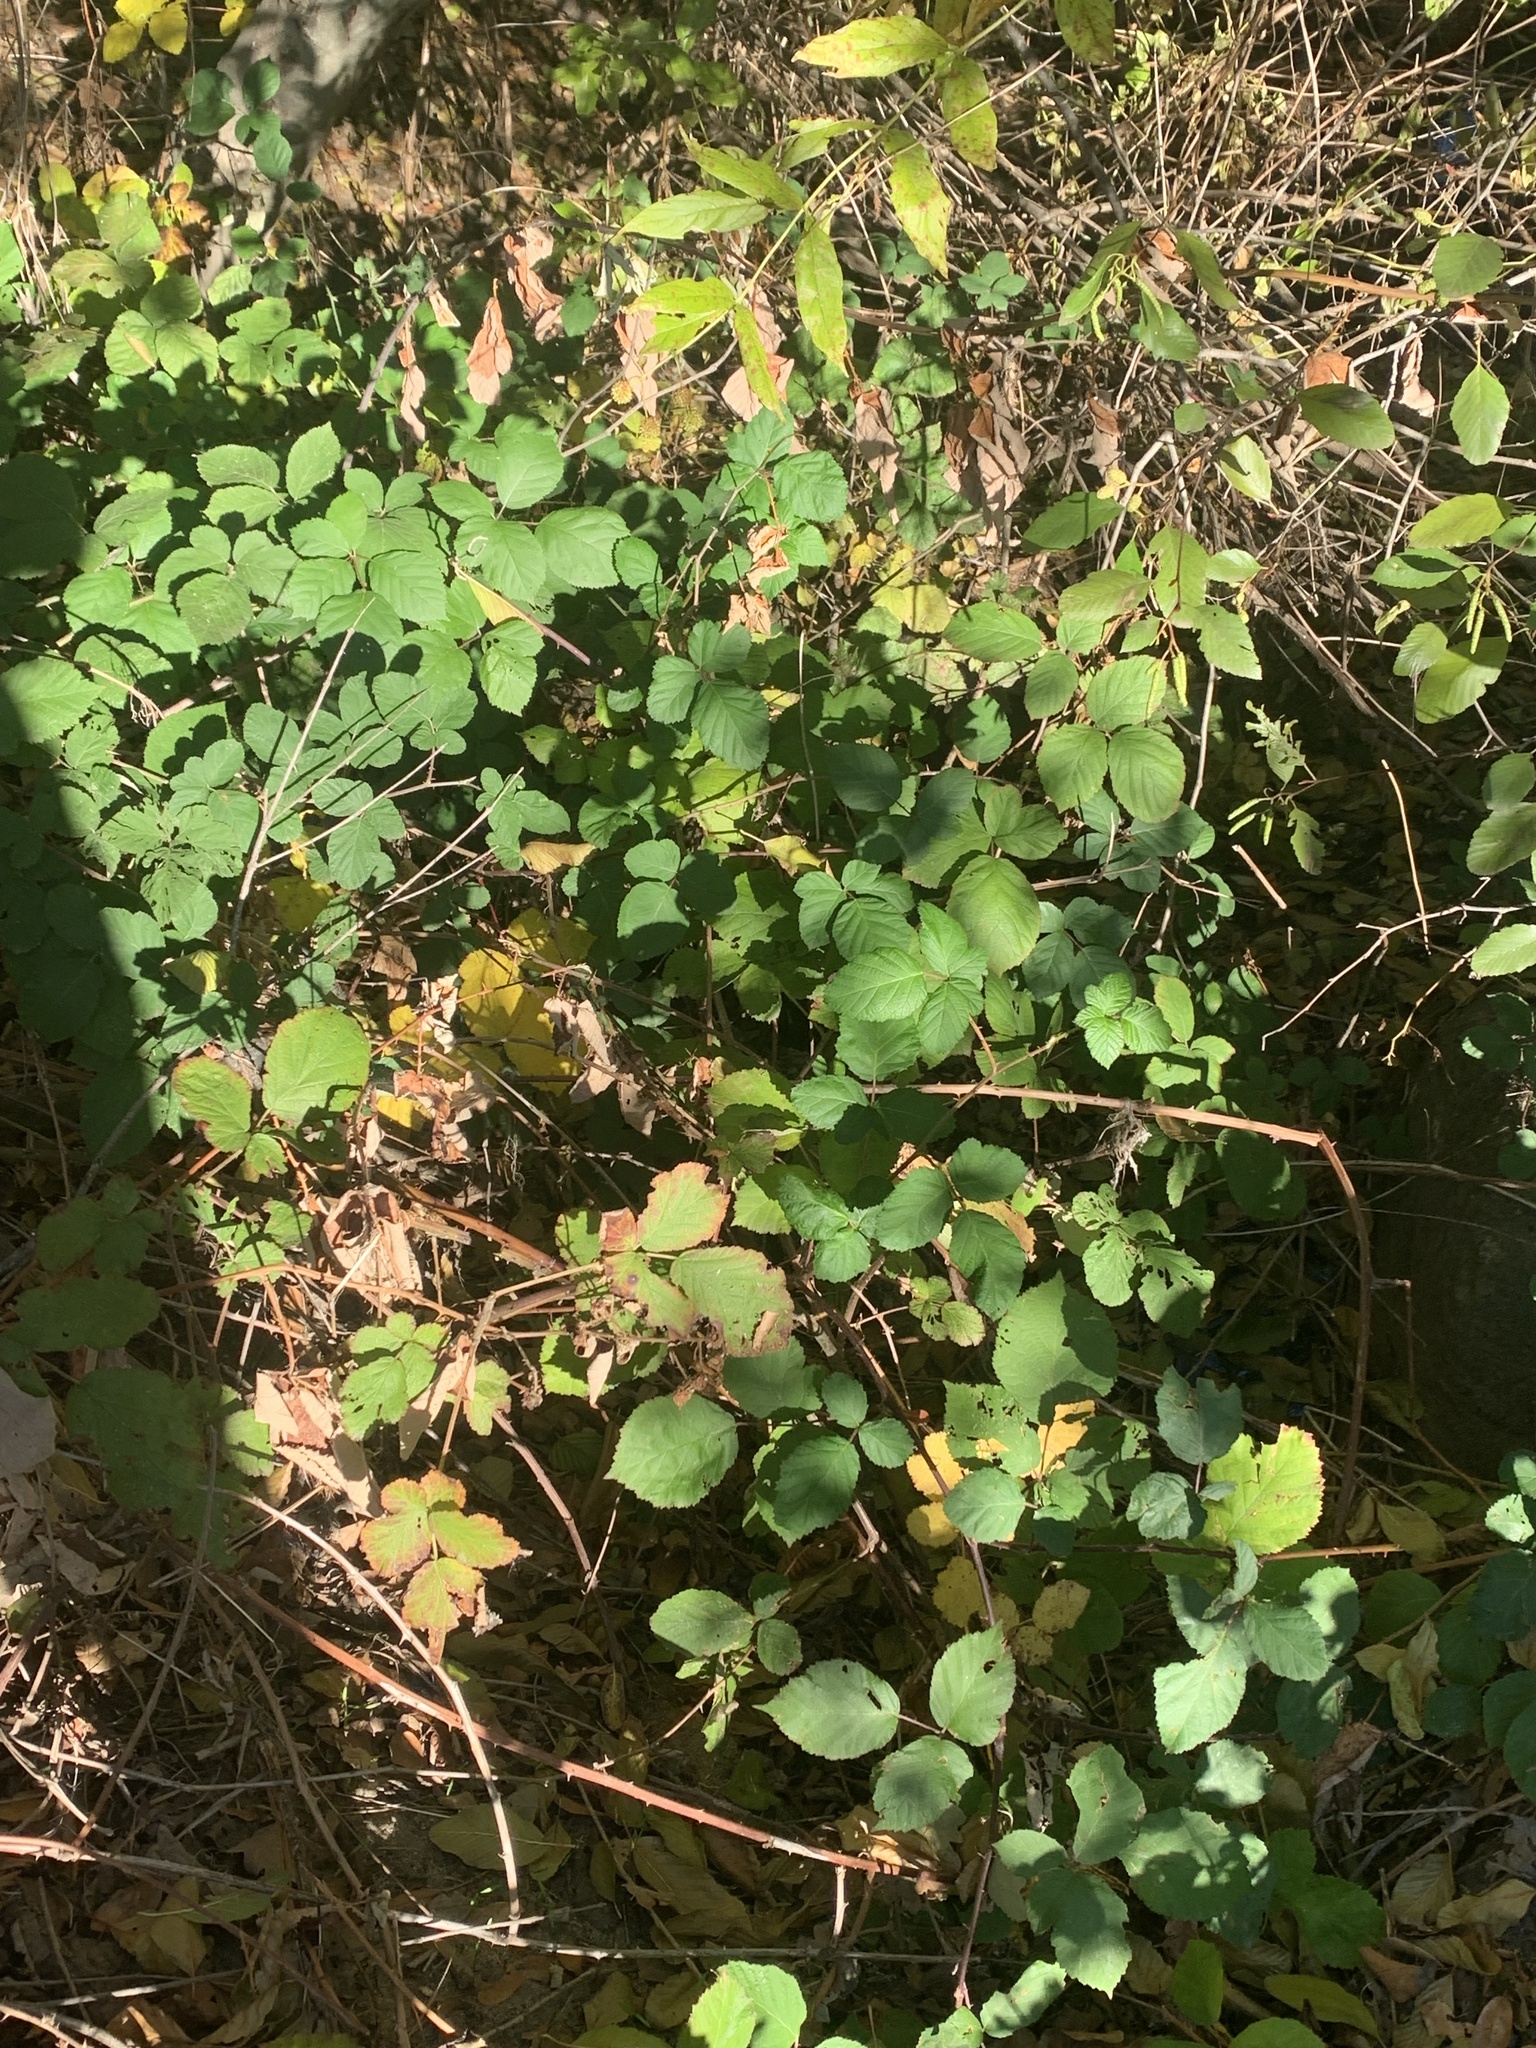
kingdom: Plantae
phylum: Tracheophyta
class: Magnoliopsida
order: Rosales
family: Rosaceae
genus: Rubus
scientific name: Rubus armeniacus
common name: Himalayan blackberry
